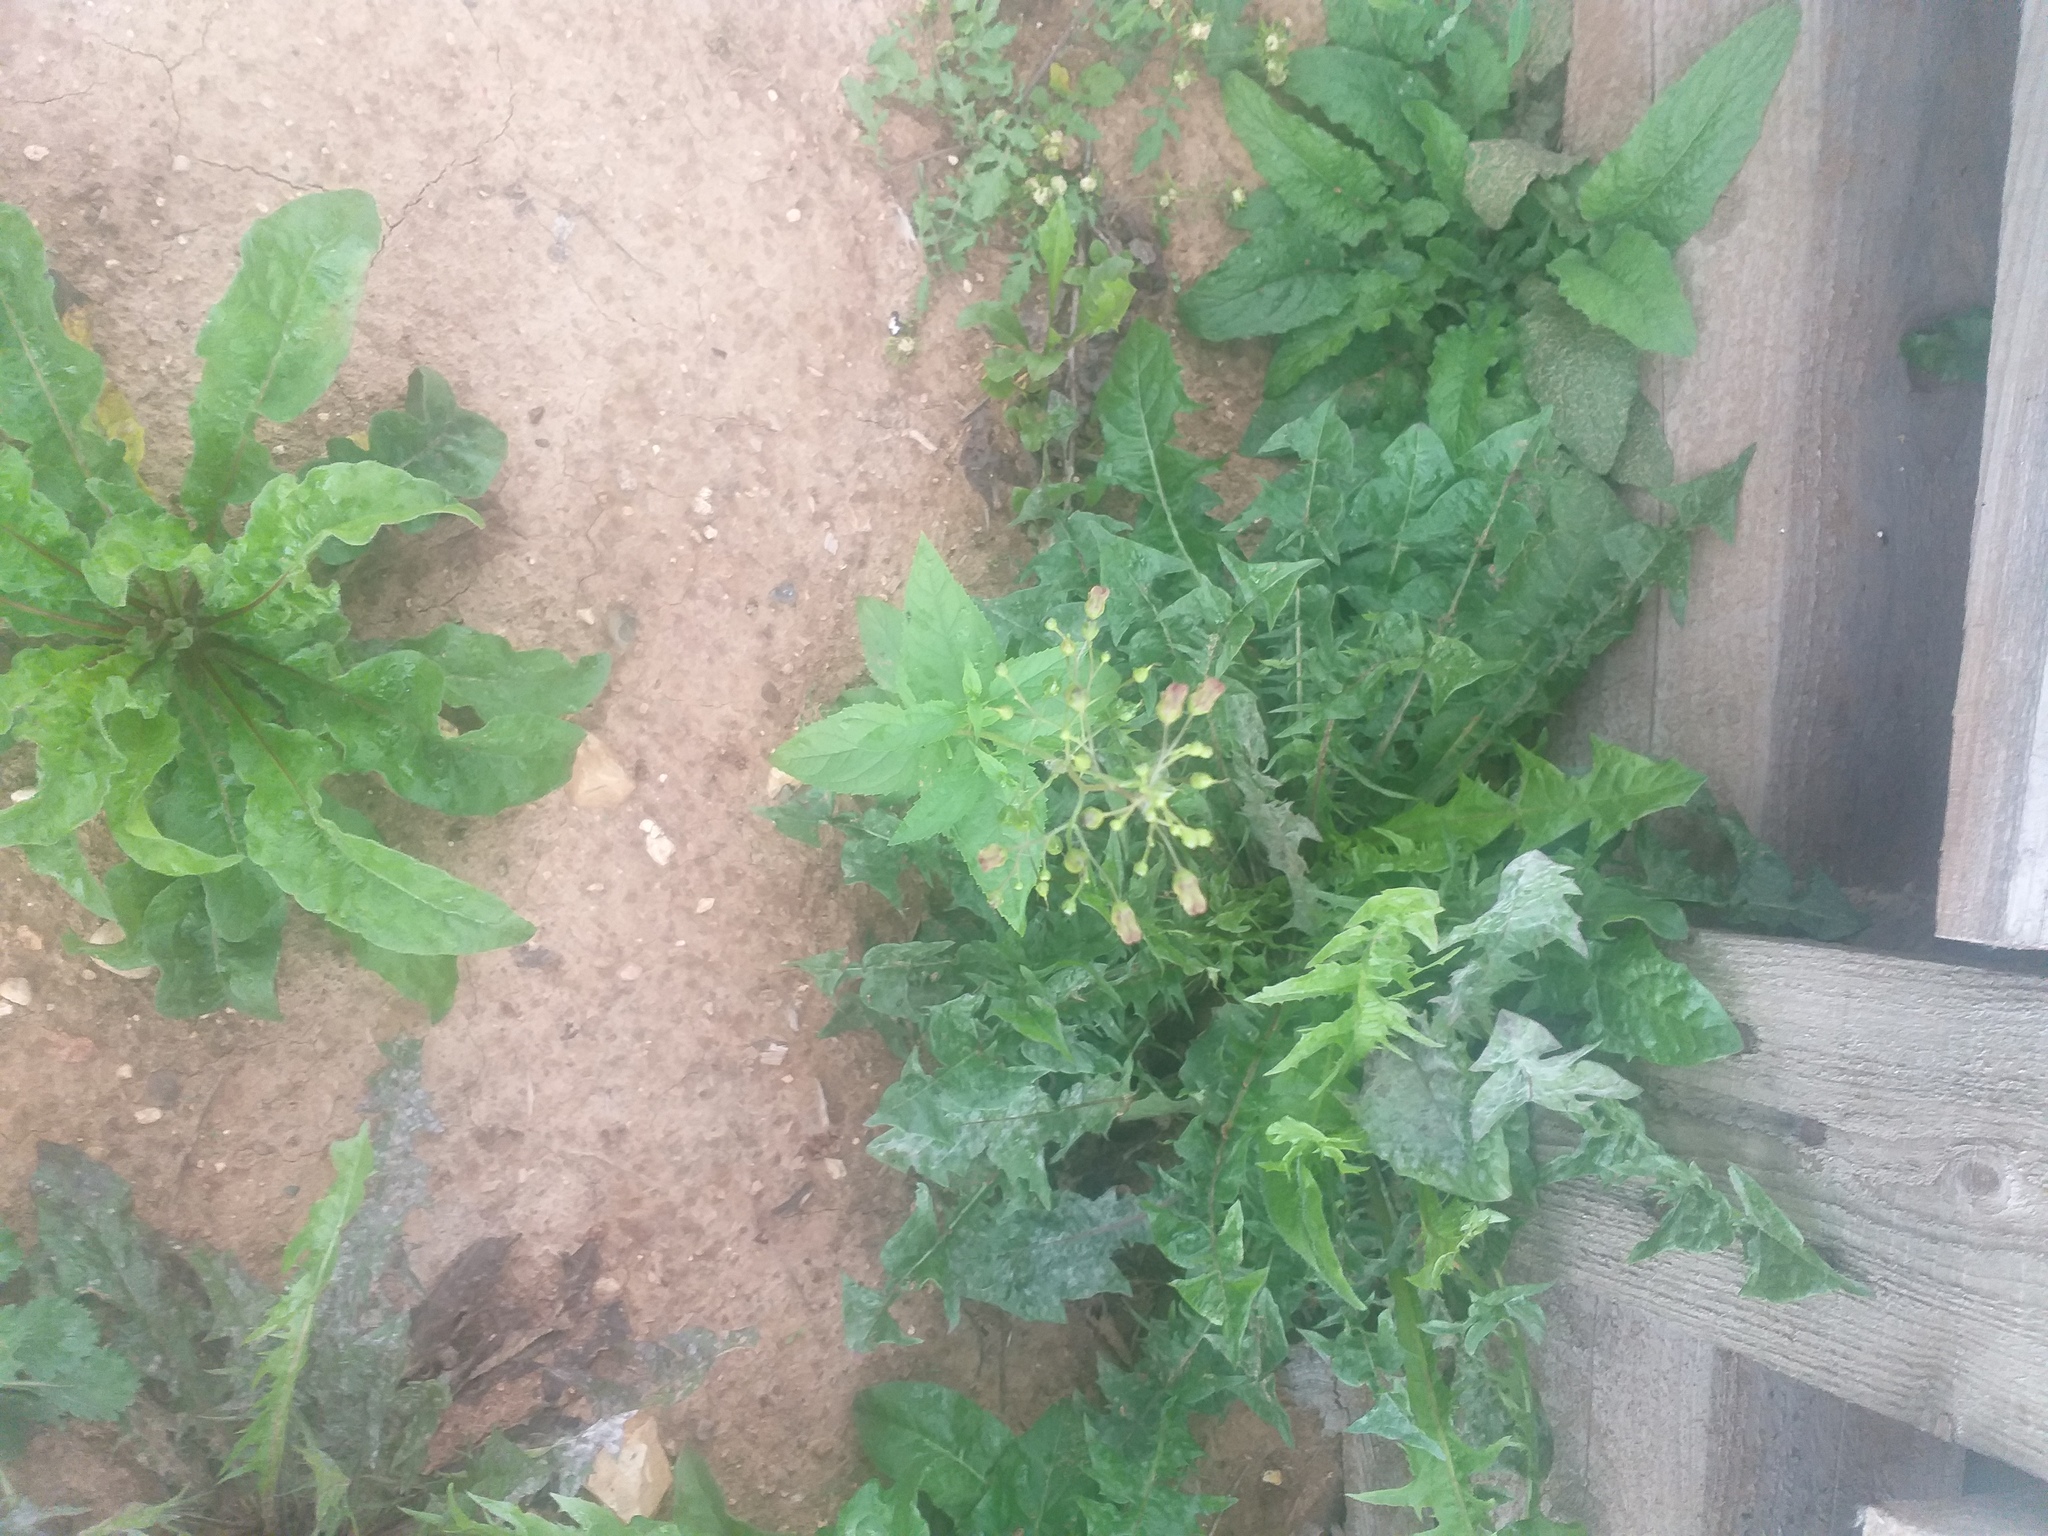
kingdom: Plantae
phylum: Tracheophyta
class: Magnoliopsida
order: Lamiales
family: Scrophulariaceae
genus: Scrophularia
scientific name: Scrophularia nodosa
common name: Common figwort
